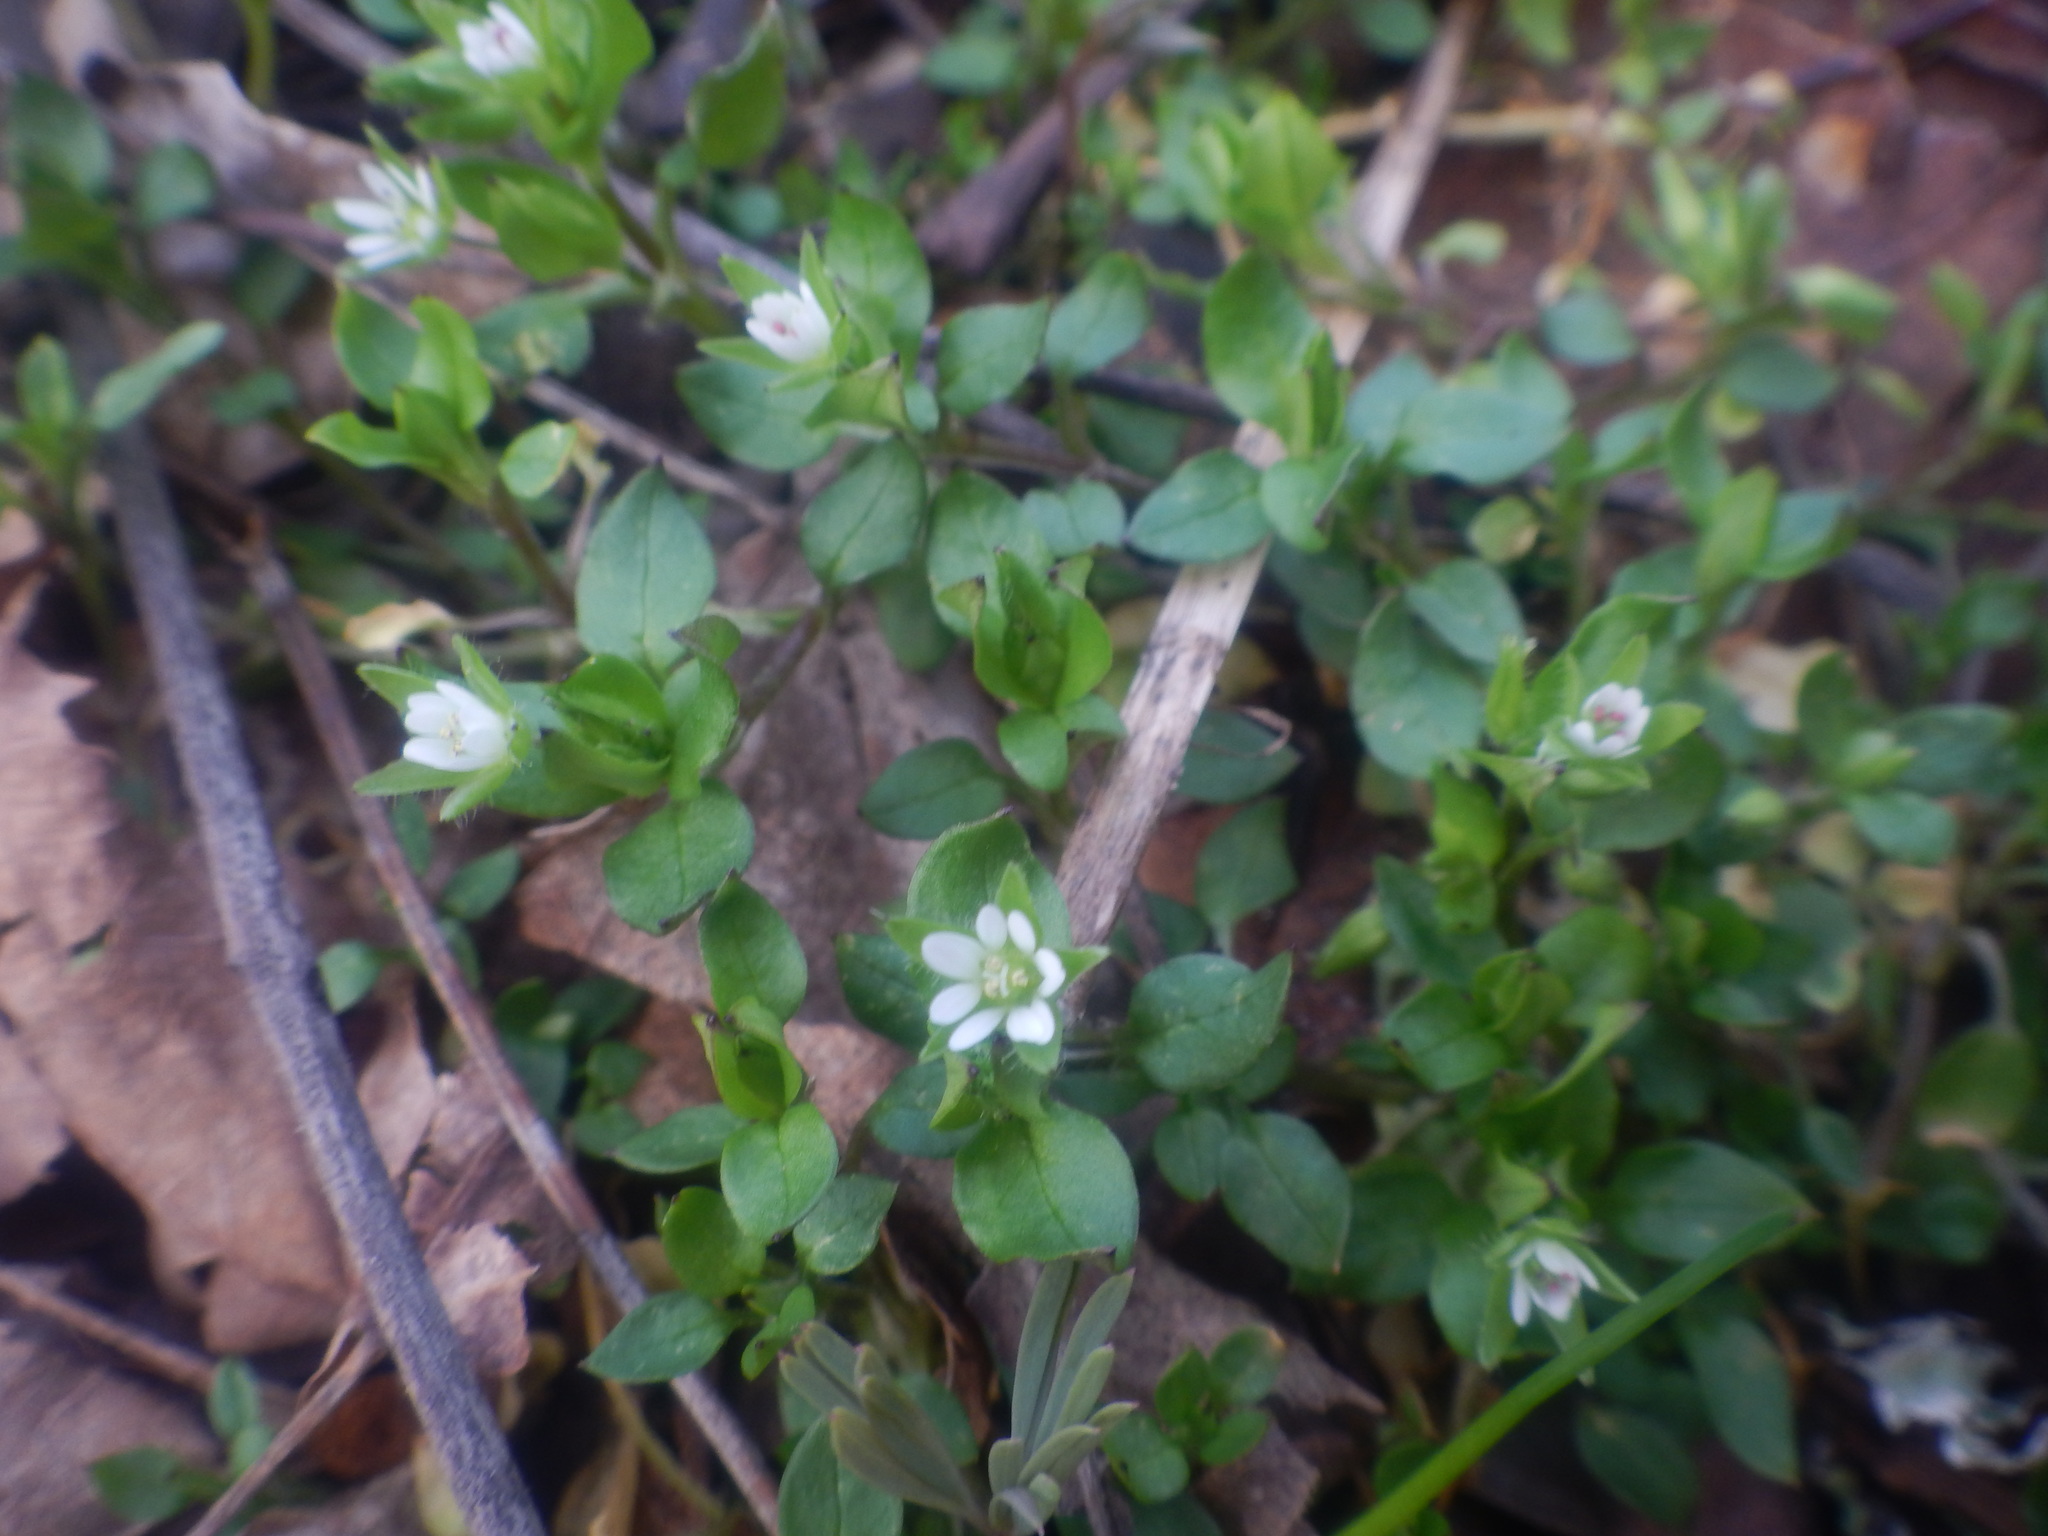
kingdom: Plantae
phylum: Tracheophyta
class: Magnoliopsida
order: Caryophyllales
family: Caryophyllaceae
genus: Stellaria
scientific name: Stellaria media
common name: Common chickweed
